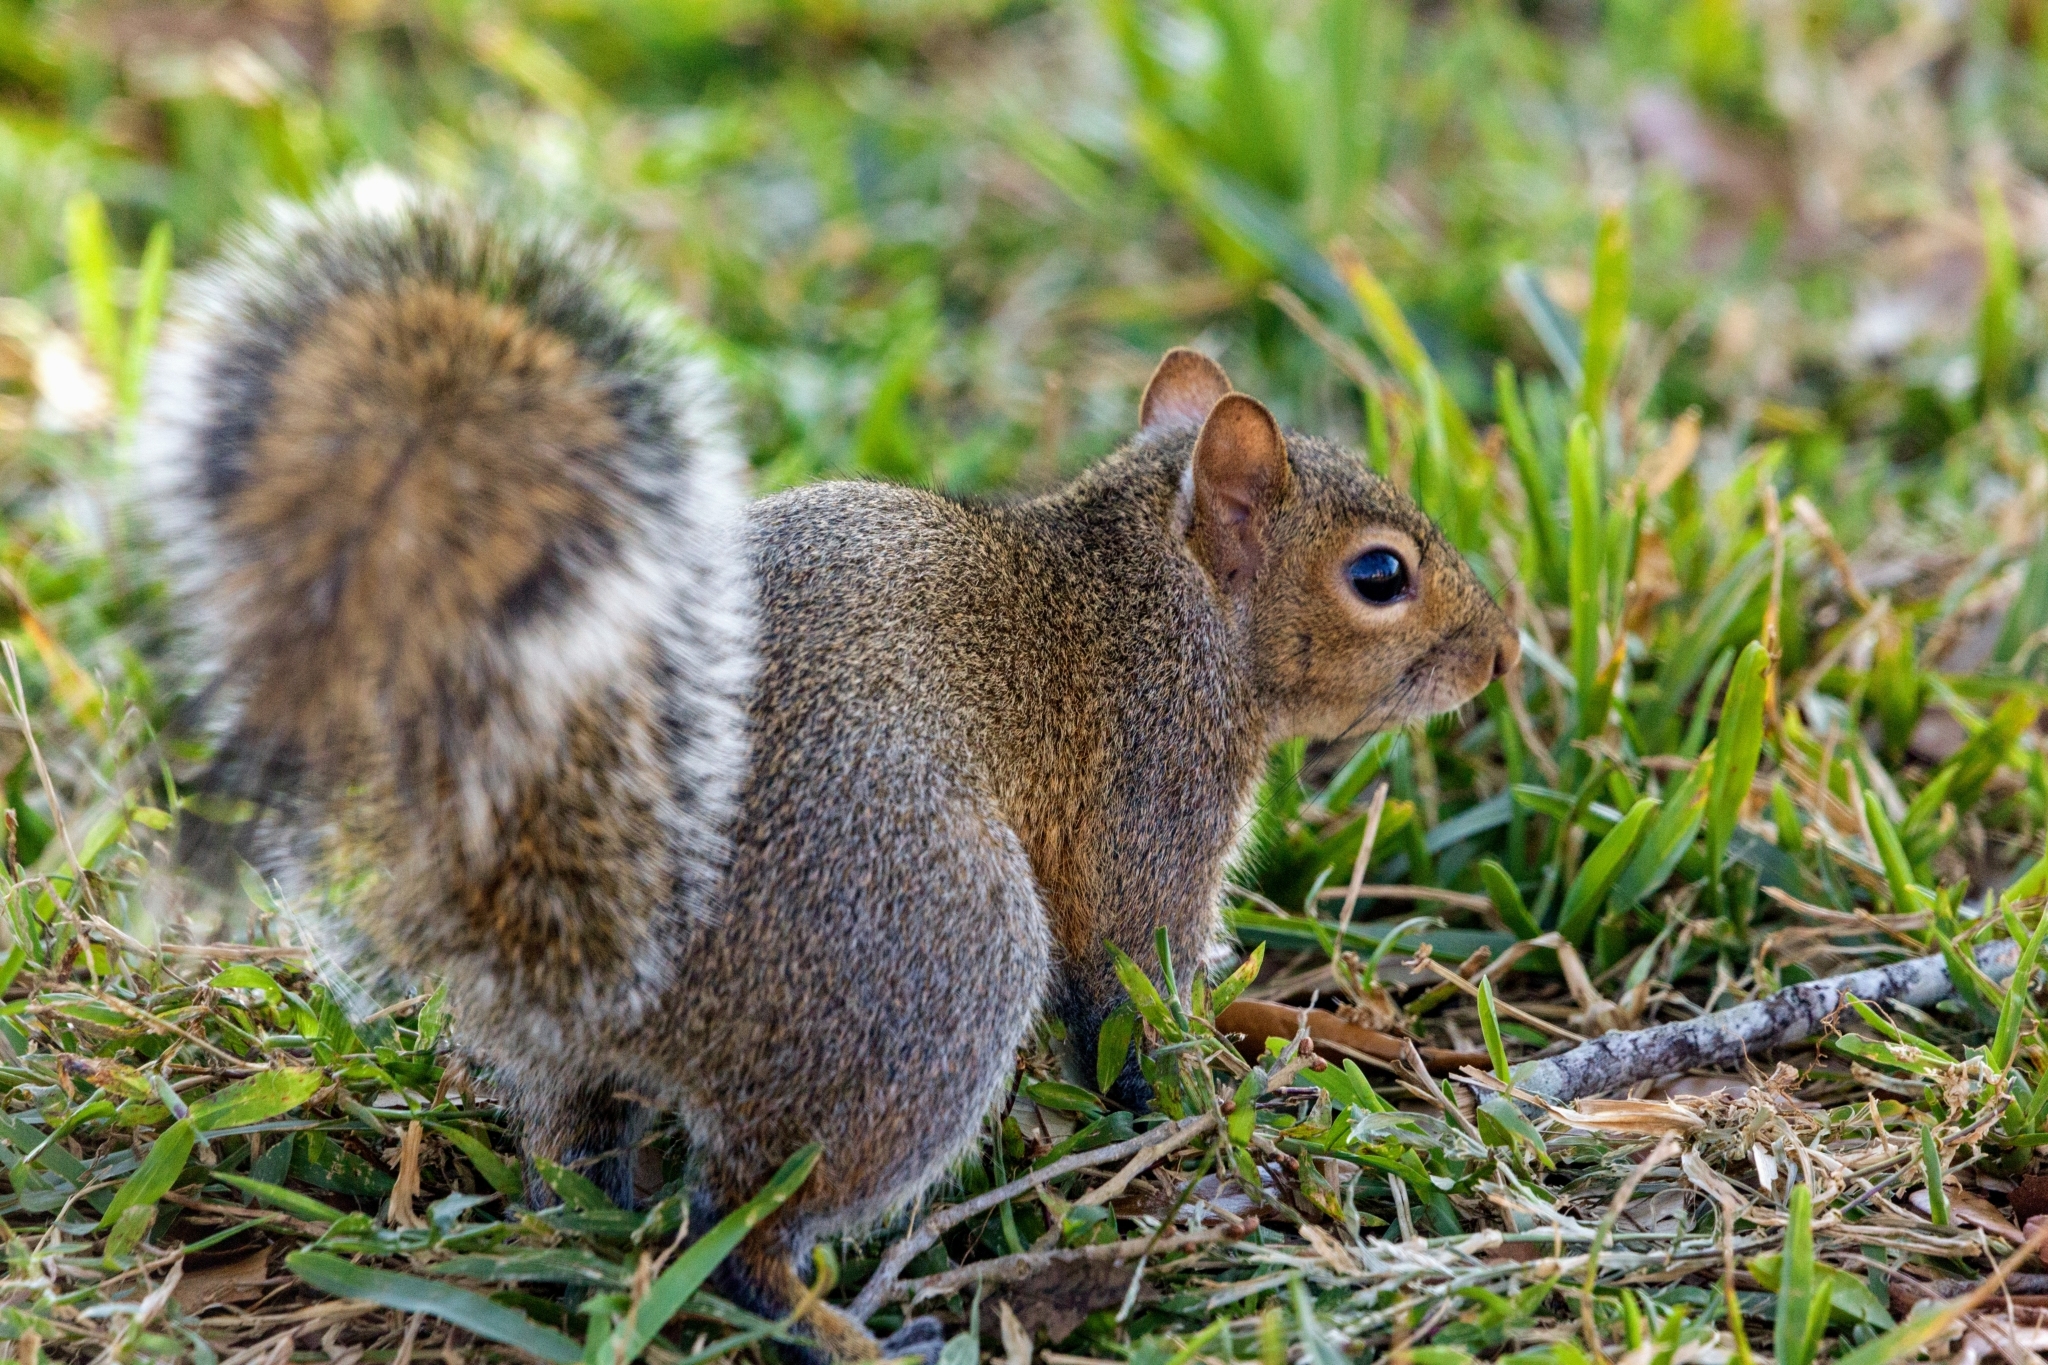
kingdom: Animalia
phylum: Chordata
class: Mammalia
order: Rodentia
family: Sciuridae
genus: Sciurus
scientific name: Sciurus carolinensis
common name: Eastern gray squirrel
